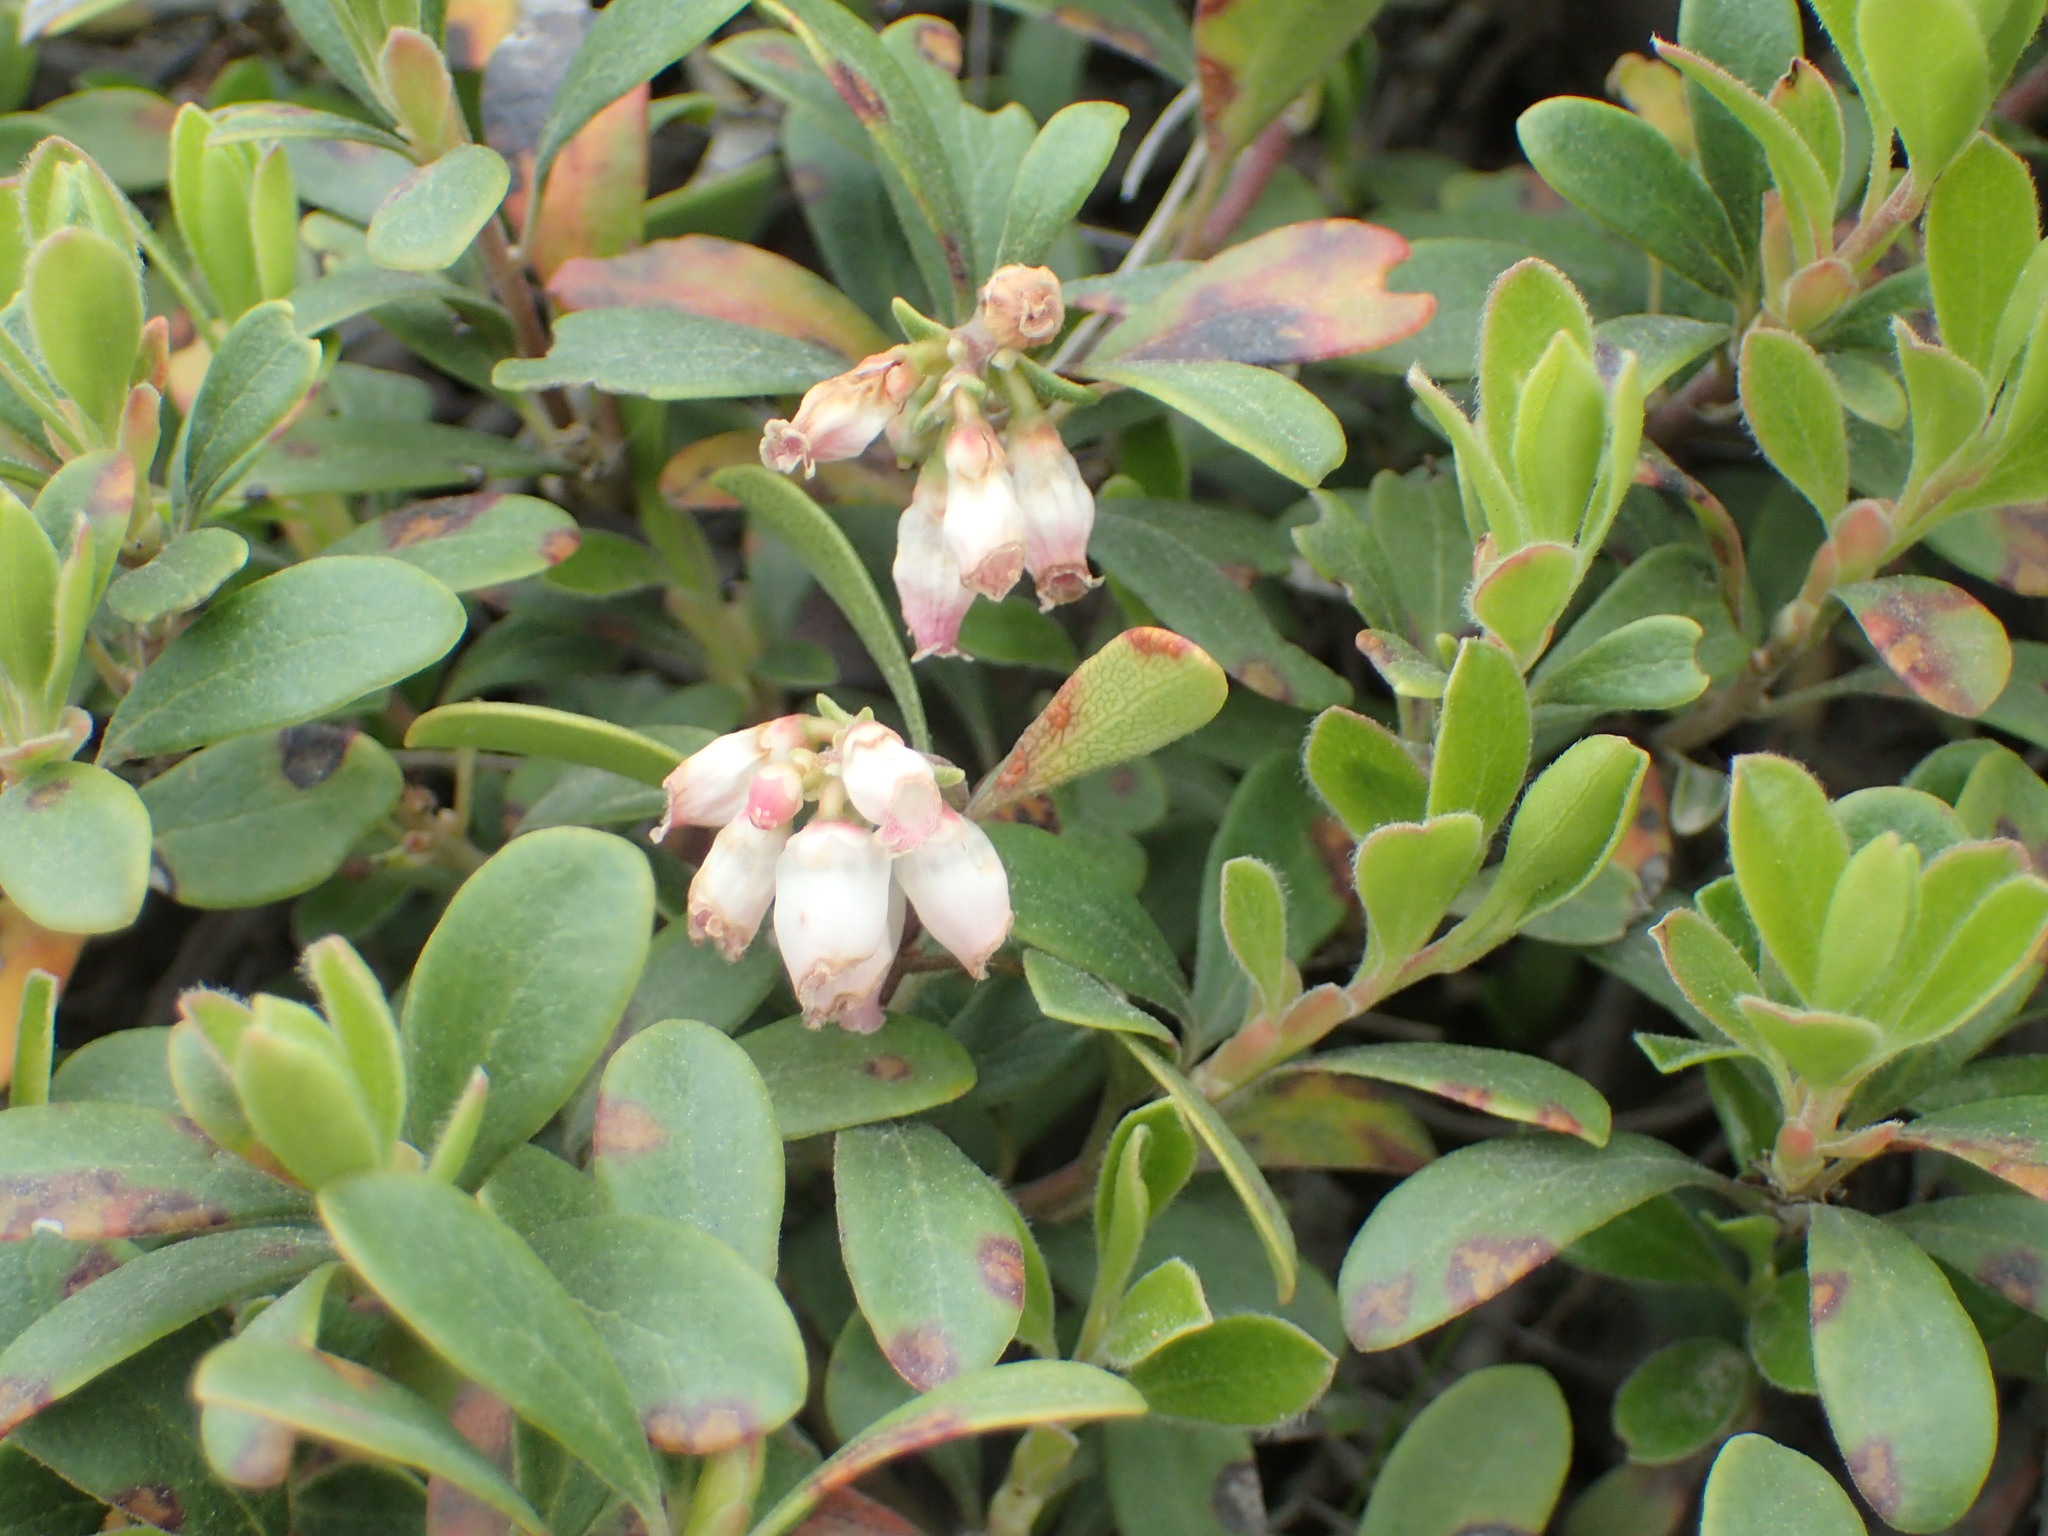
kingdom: Plantae
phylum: Tracheophyta
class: Magnoliopsida
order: Ericales
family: Ericaceae
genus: Arctostaphylos
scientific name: Arctostaphylos uva-ursi
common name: Bearberry
